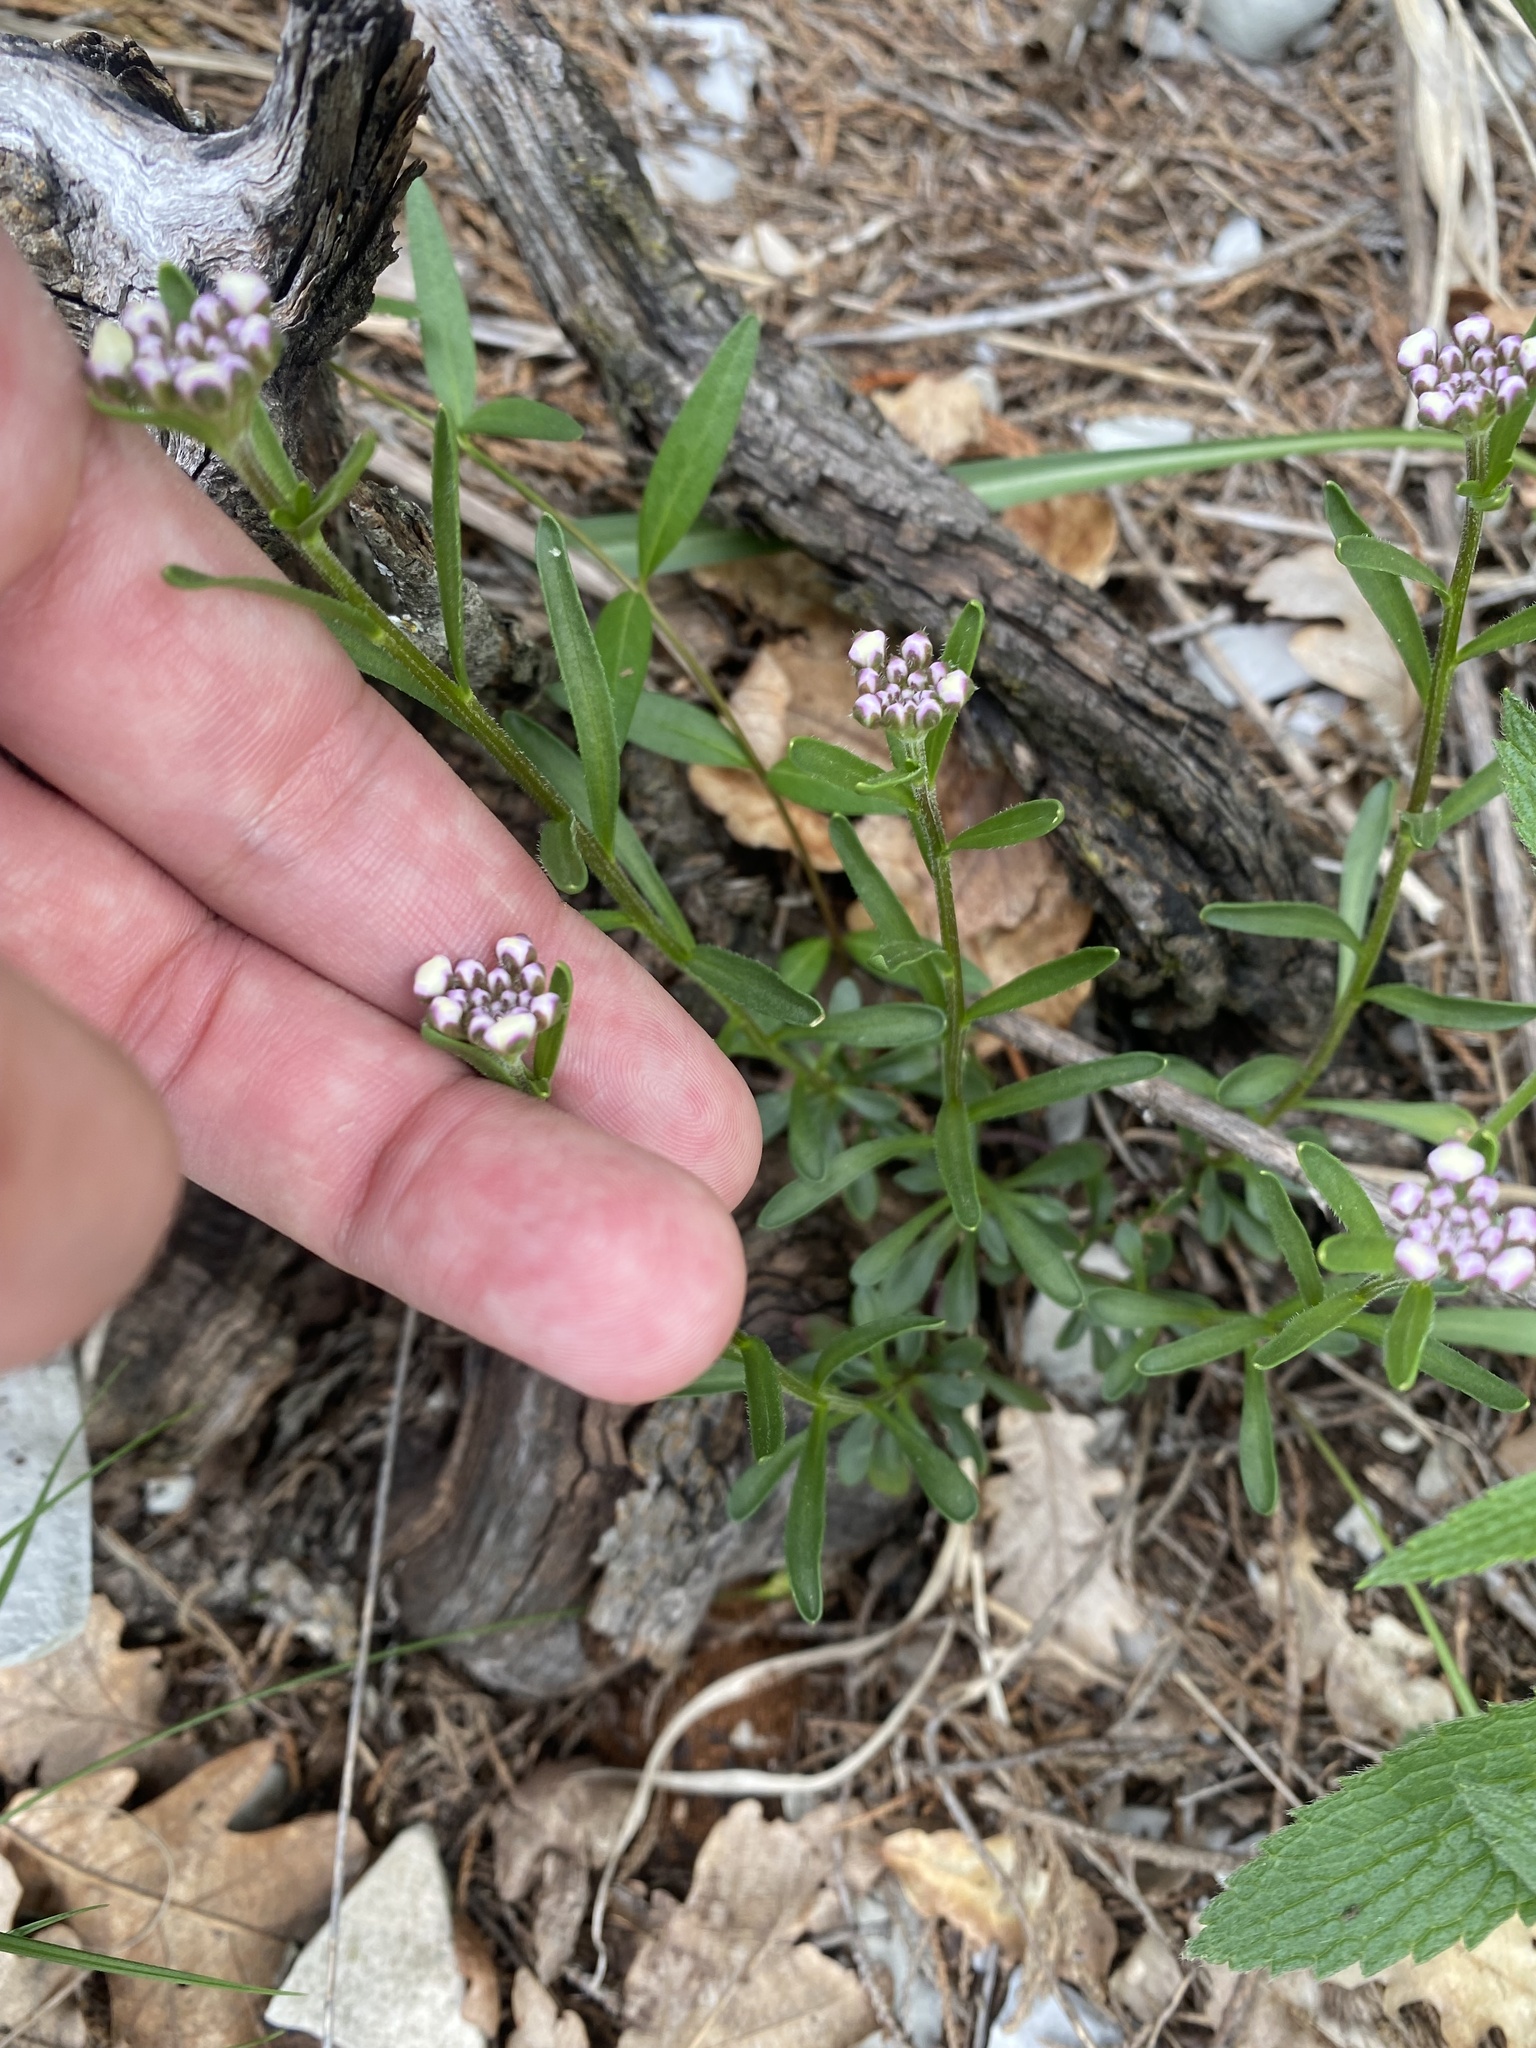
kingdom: Plantae
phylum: Tracheophyta
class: Magnoliopsida
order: Brassicales
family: Brassicaceae
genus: Iberis
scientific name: Iberis simplex
